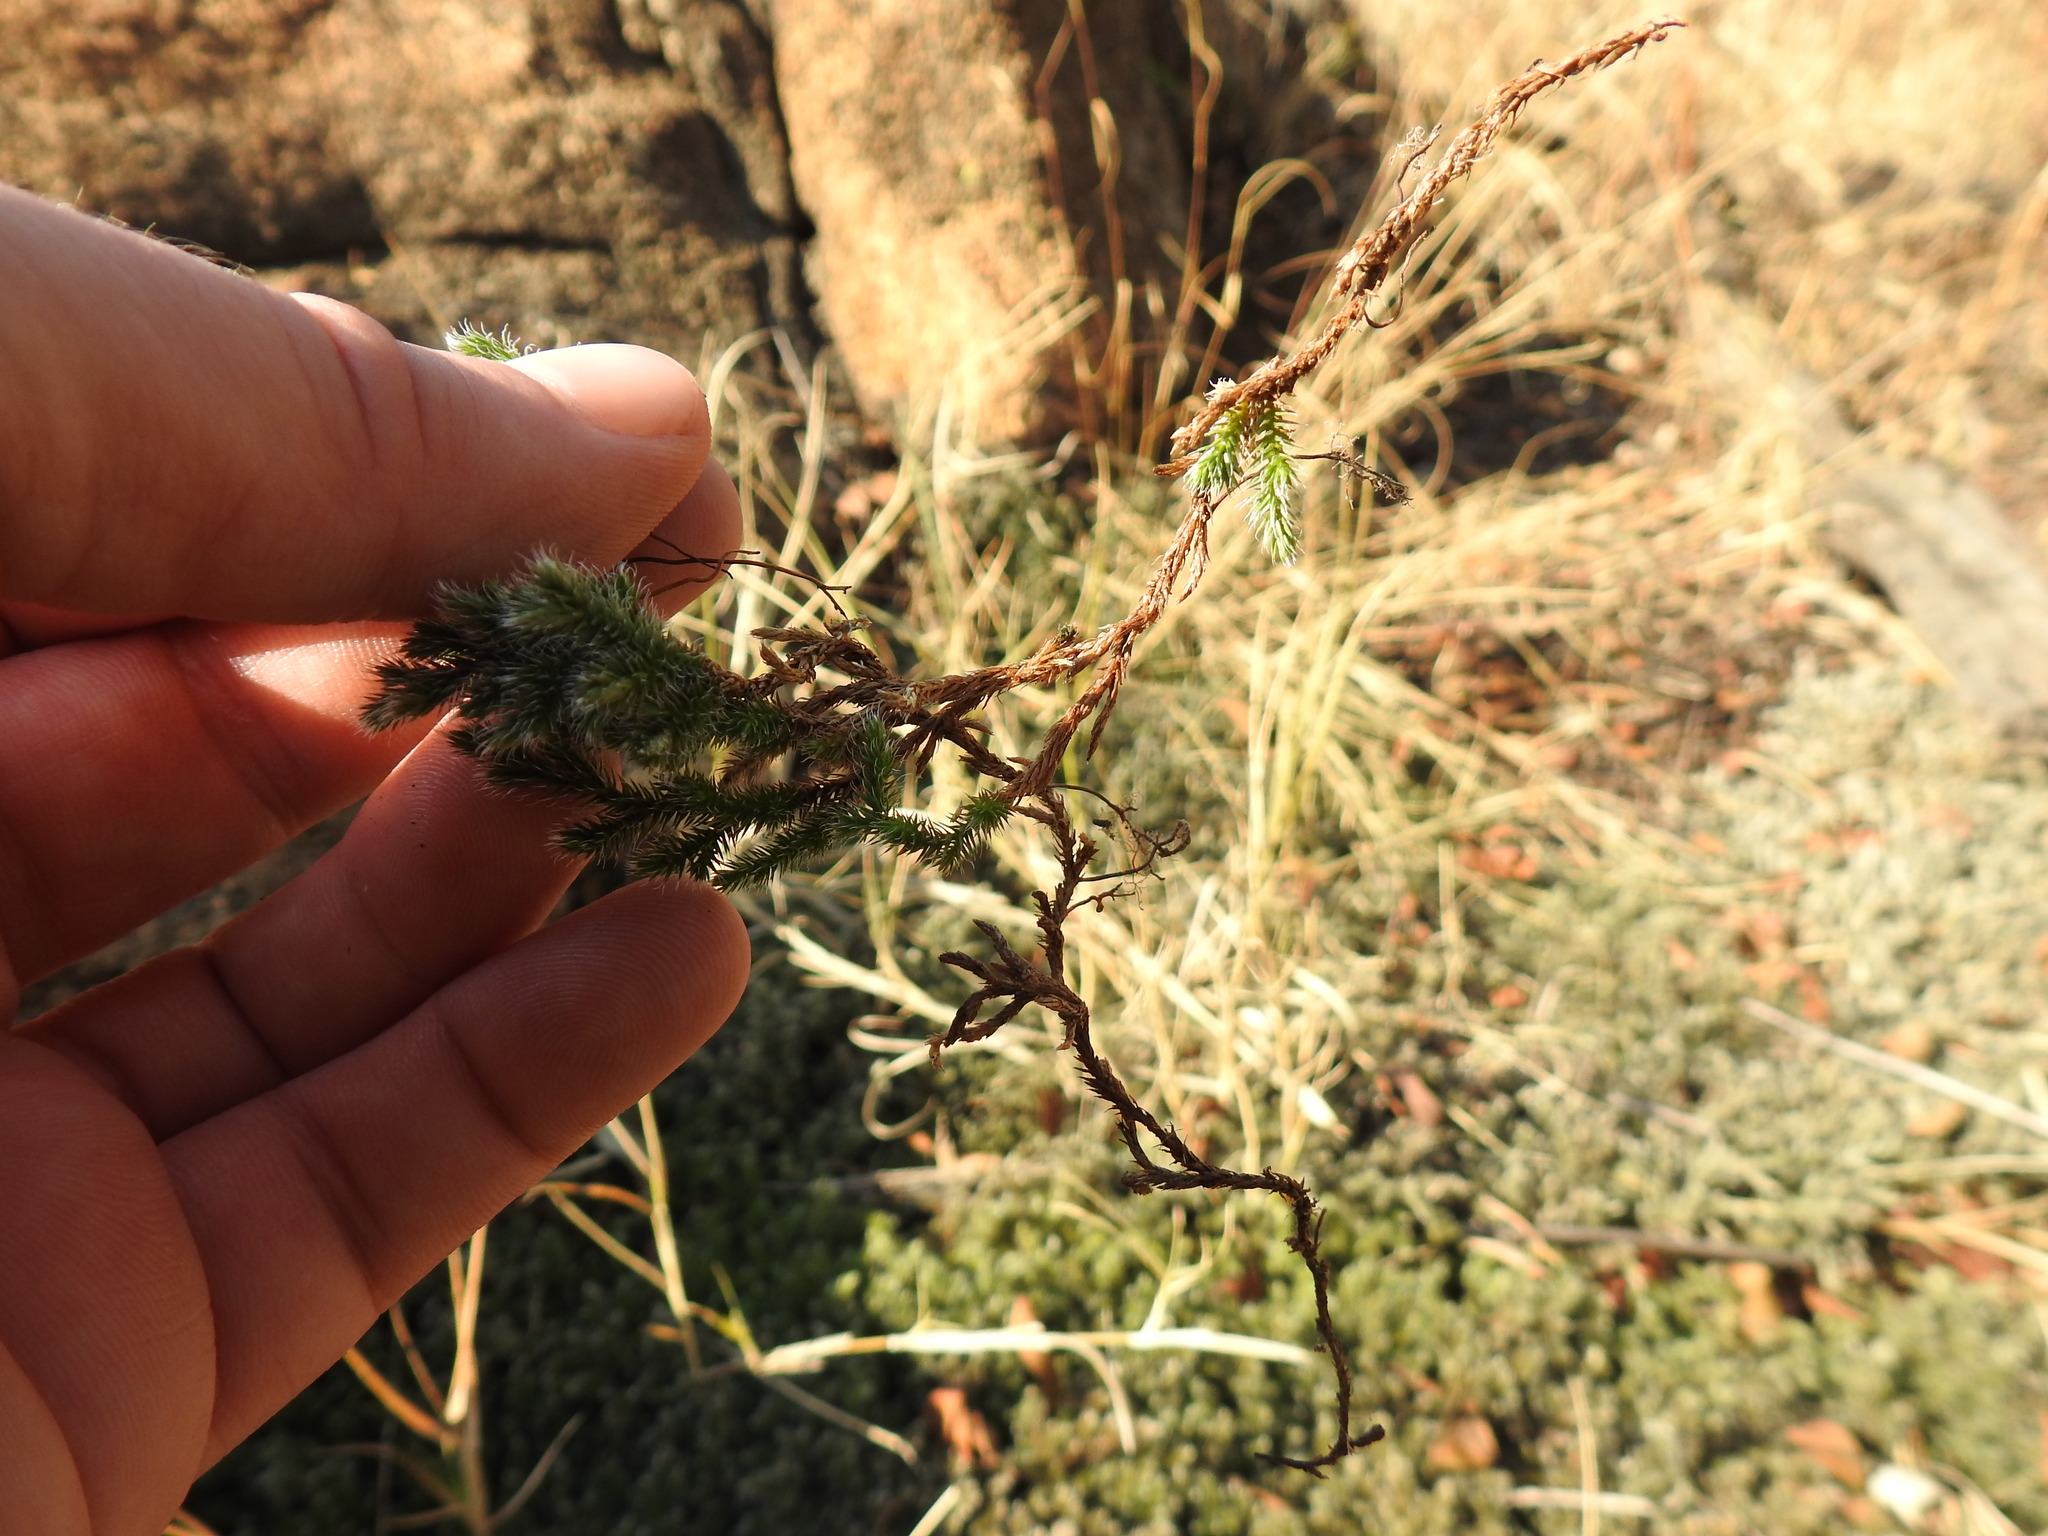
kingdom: Plantae
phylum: Tracheophyta
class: Lycopodiopsida
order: Selaginellales
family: Selaginellaceae
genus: Selaginella
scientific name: Selaginella dregei
